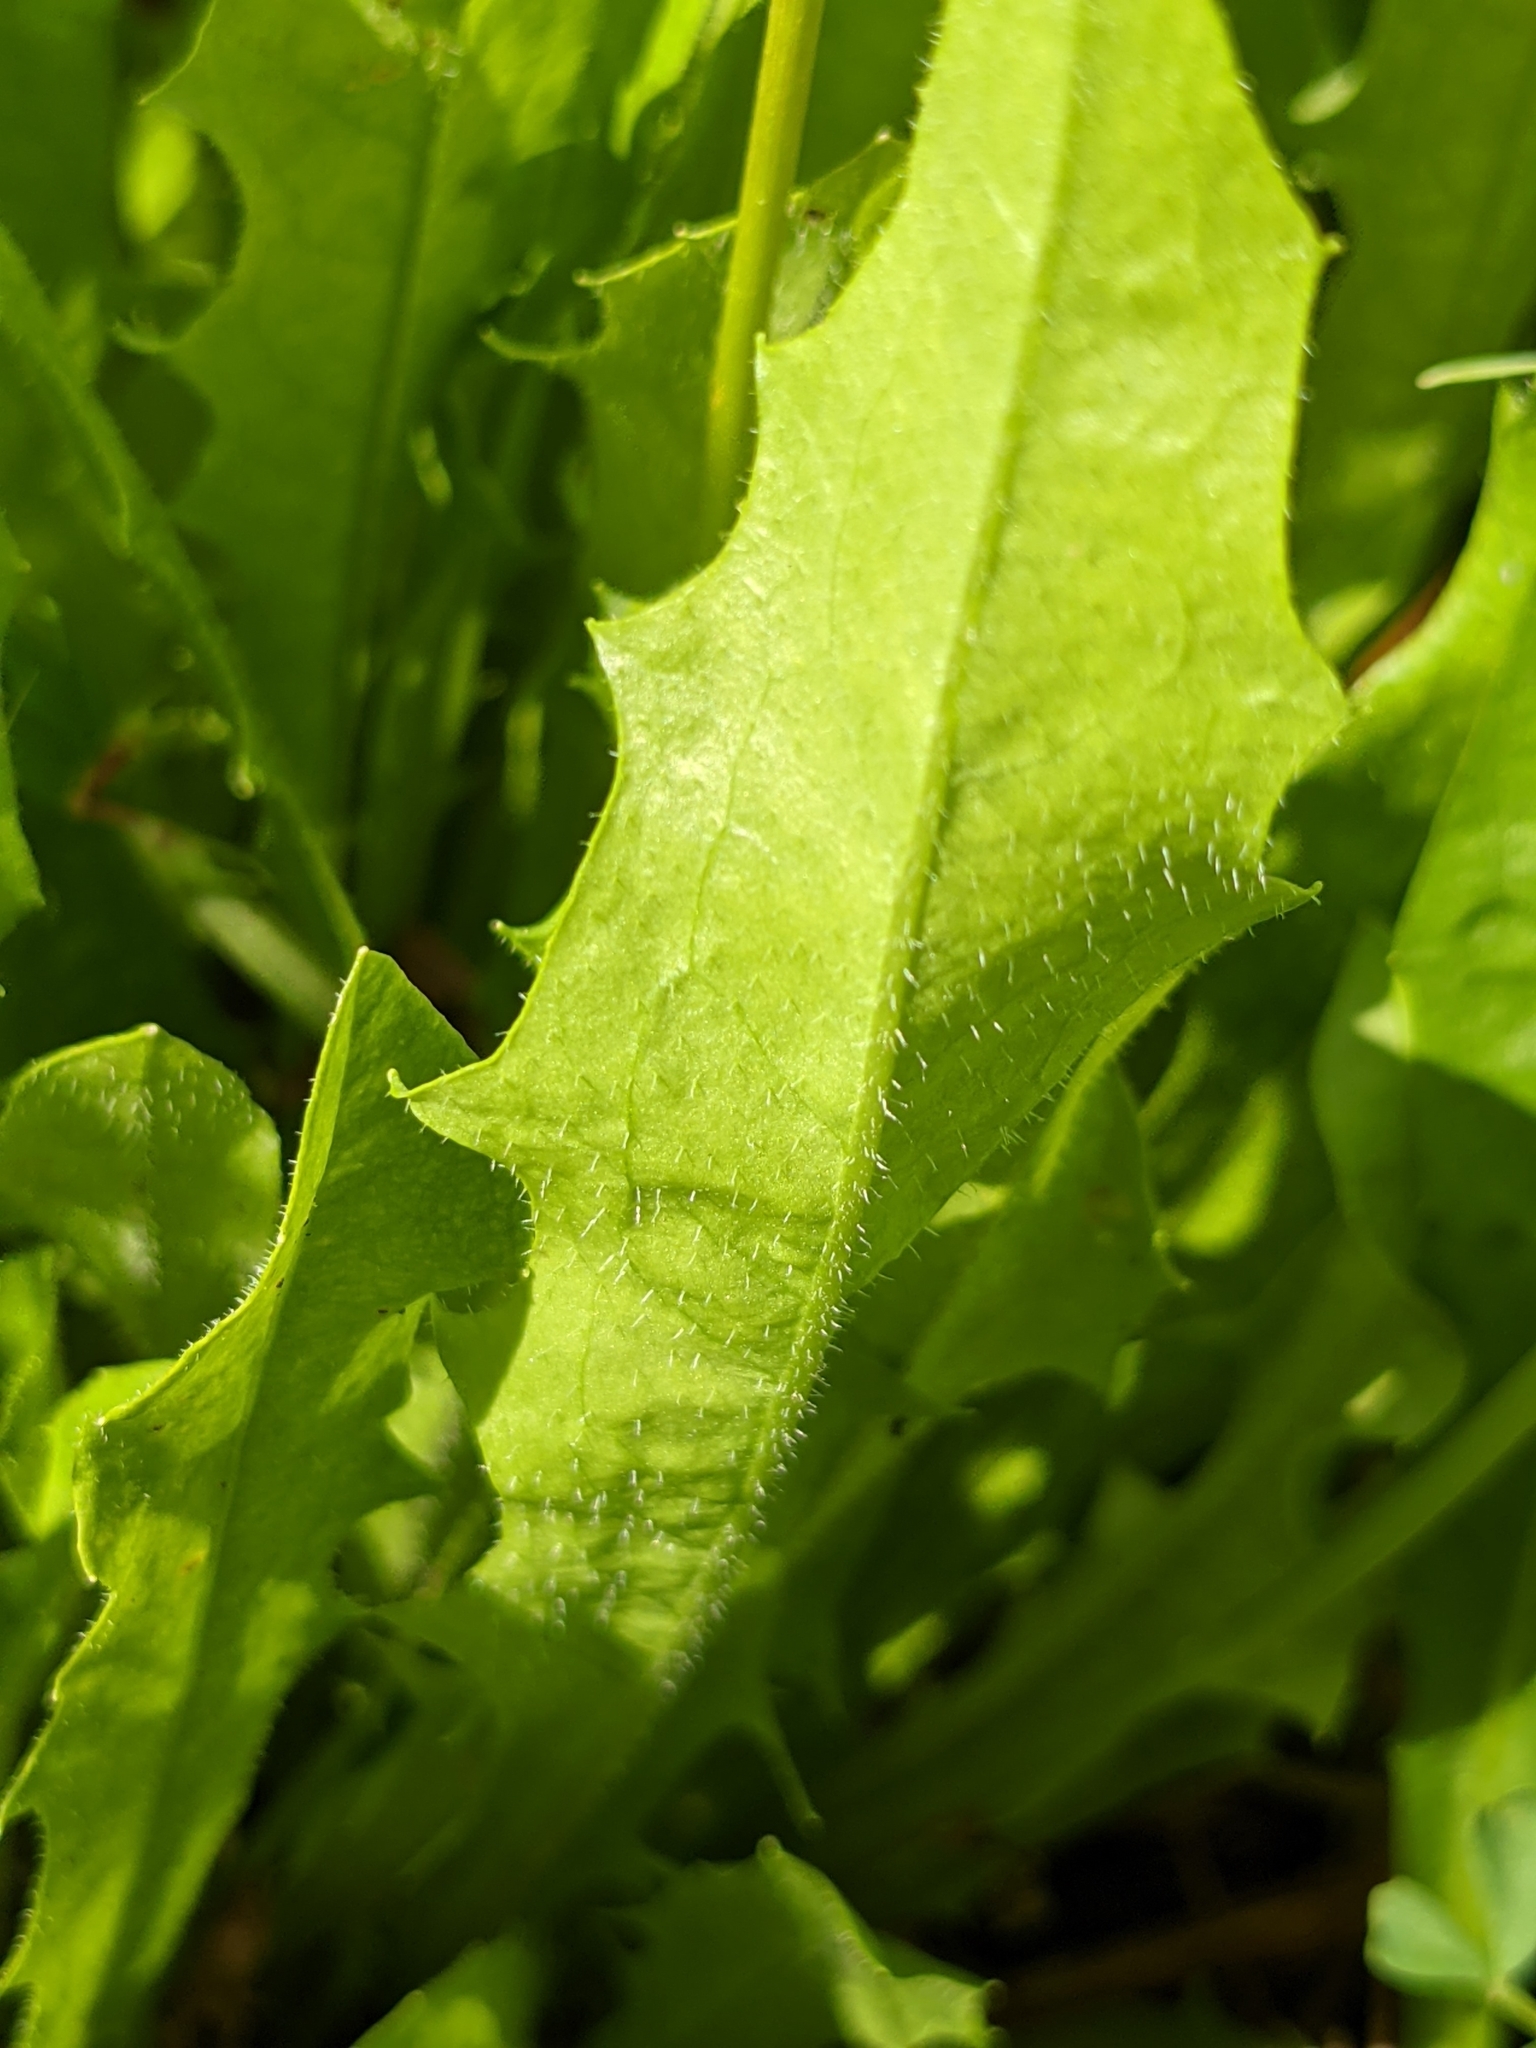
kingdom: Plantae
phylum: Tracheophyta
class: Magnoliopsida
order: Asterales
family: Asteraceae
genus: Leontodon
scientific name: Leontodon hispidus
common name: Rough hawkbit
